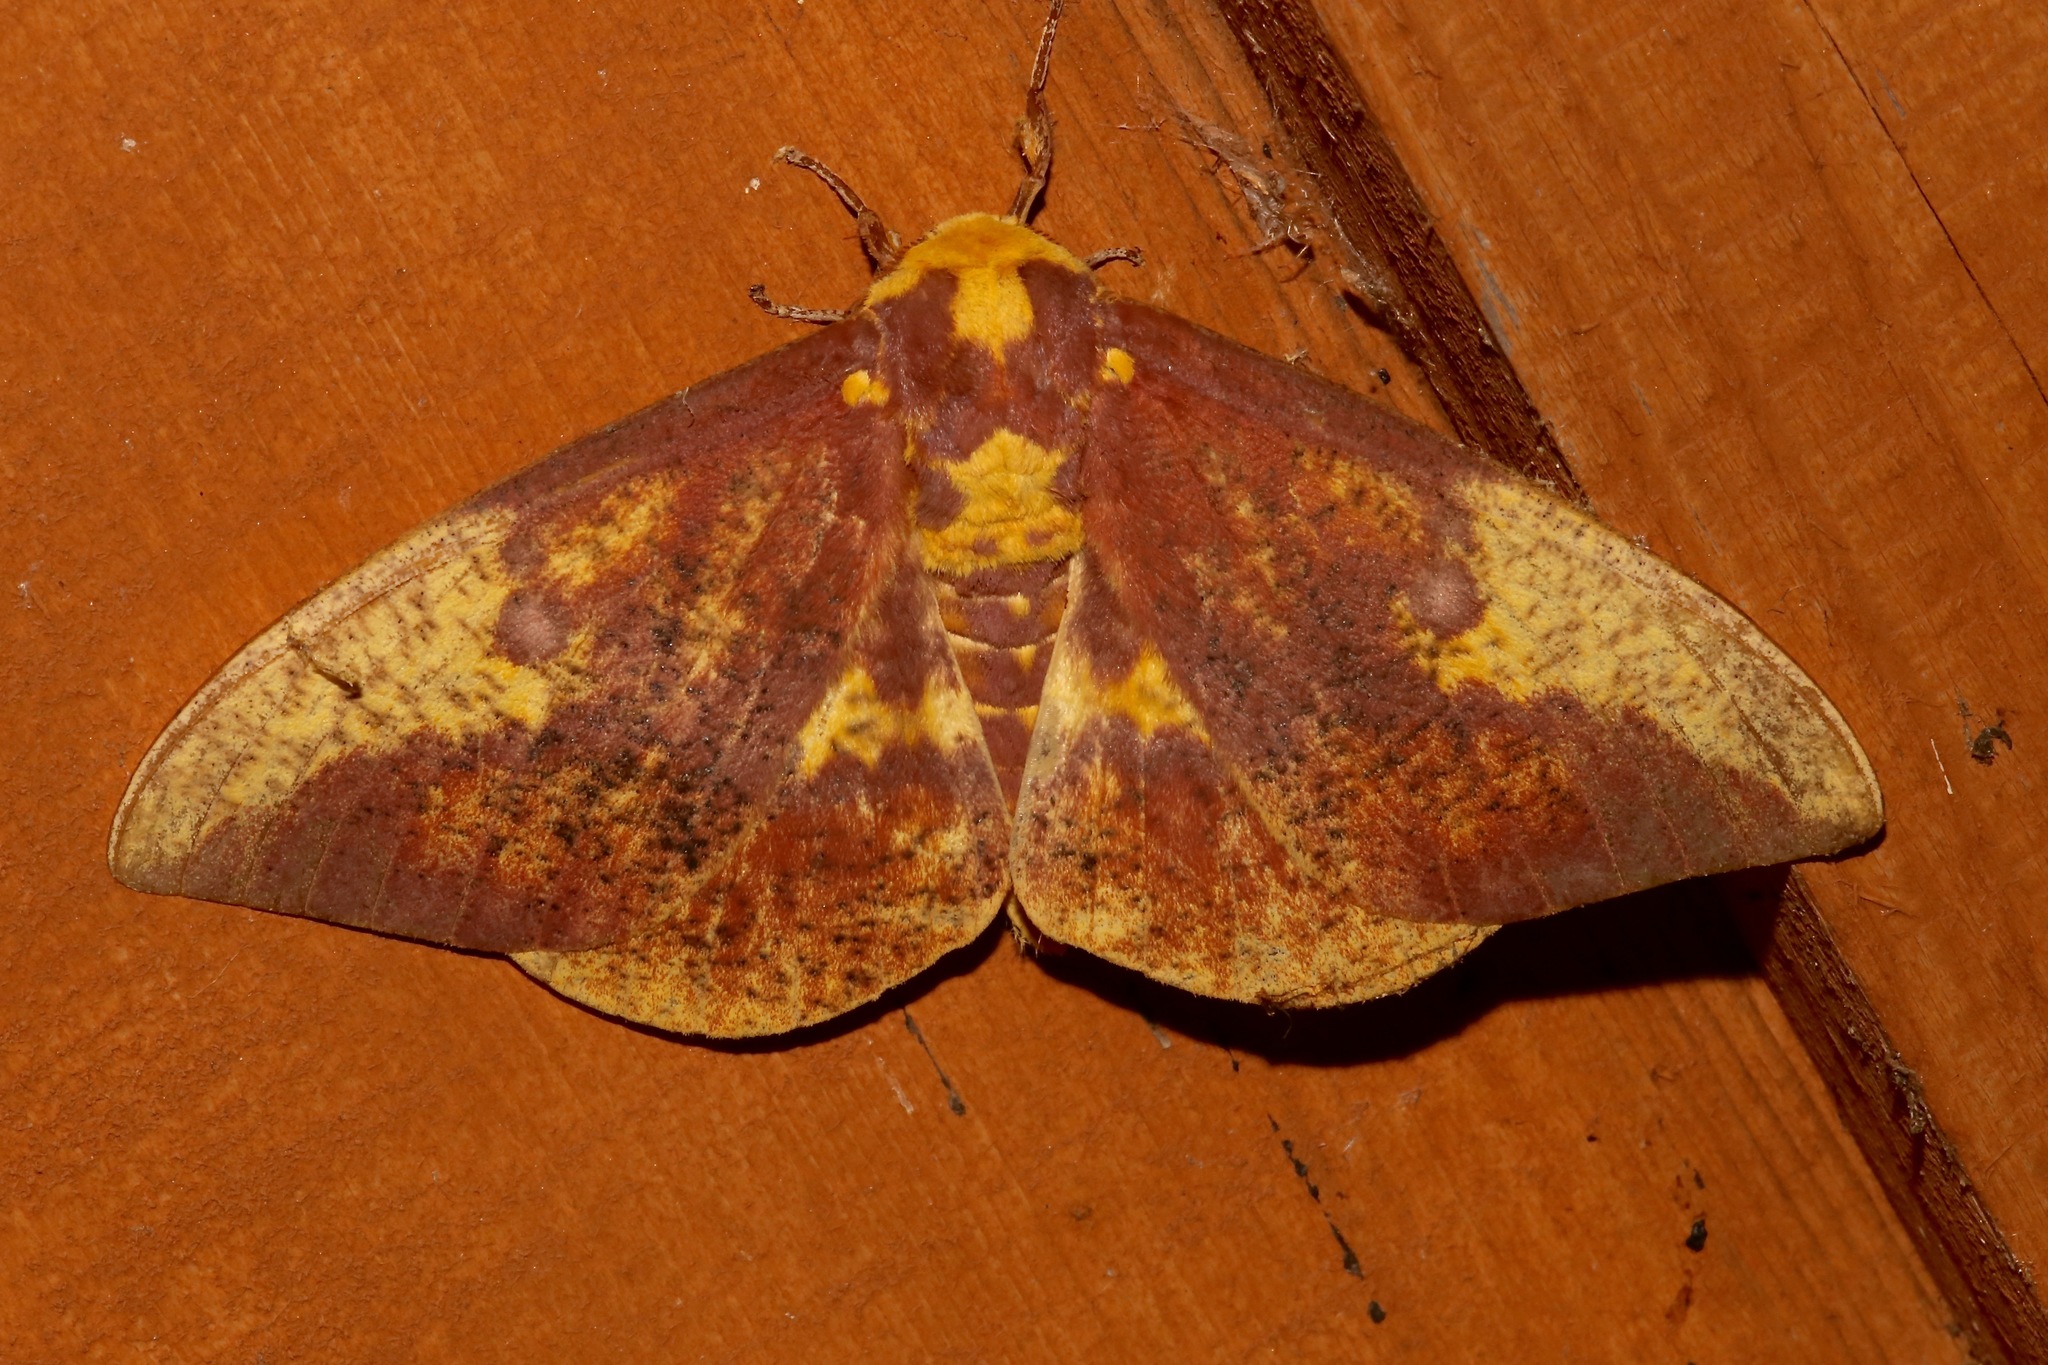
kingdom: Animalia
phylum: Arthropoda
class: Insecta
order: Lepidoptera
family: Saturniidae
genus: Eacles
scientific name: Eacles imperialis
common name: Imperial moth
